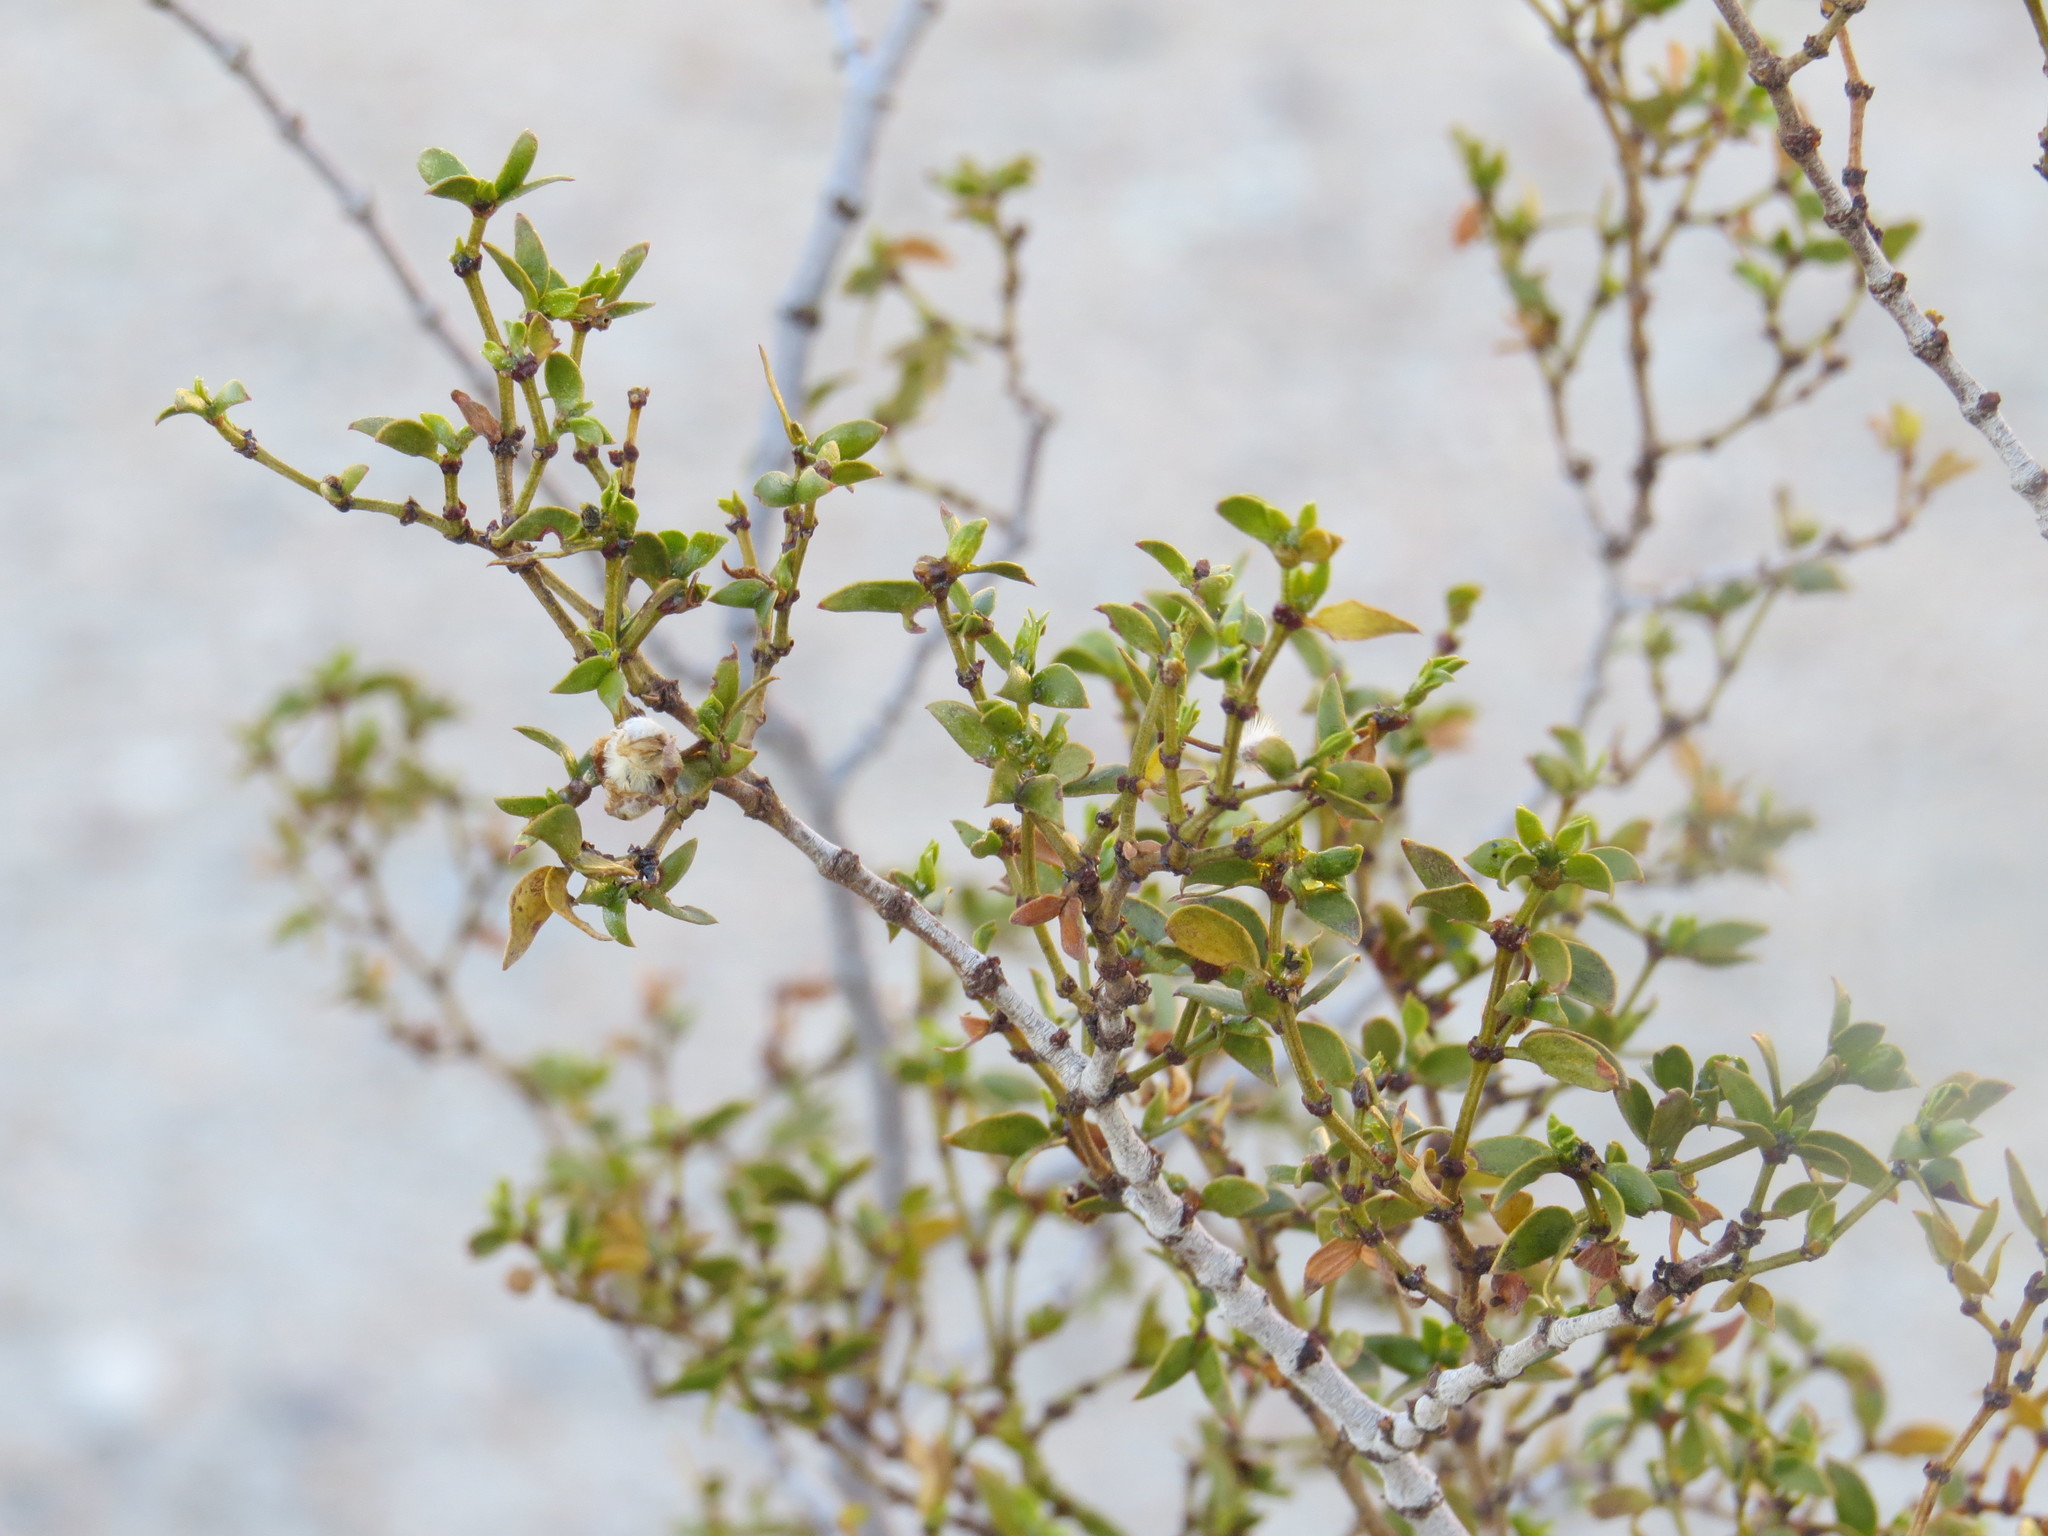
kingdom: Plantae
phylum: Tracheophyta
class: Magnoliopsida
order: Zygophyllales
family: Zygophyllaceae
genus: Larrea
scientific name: Larrea tridentata
